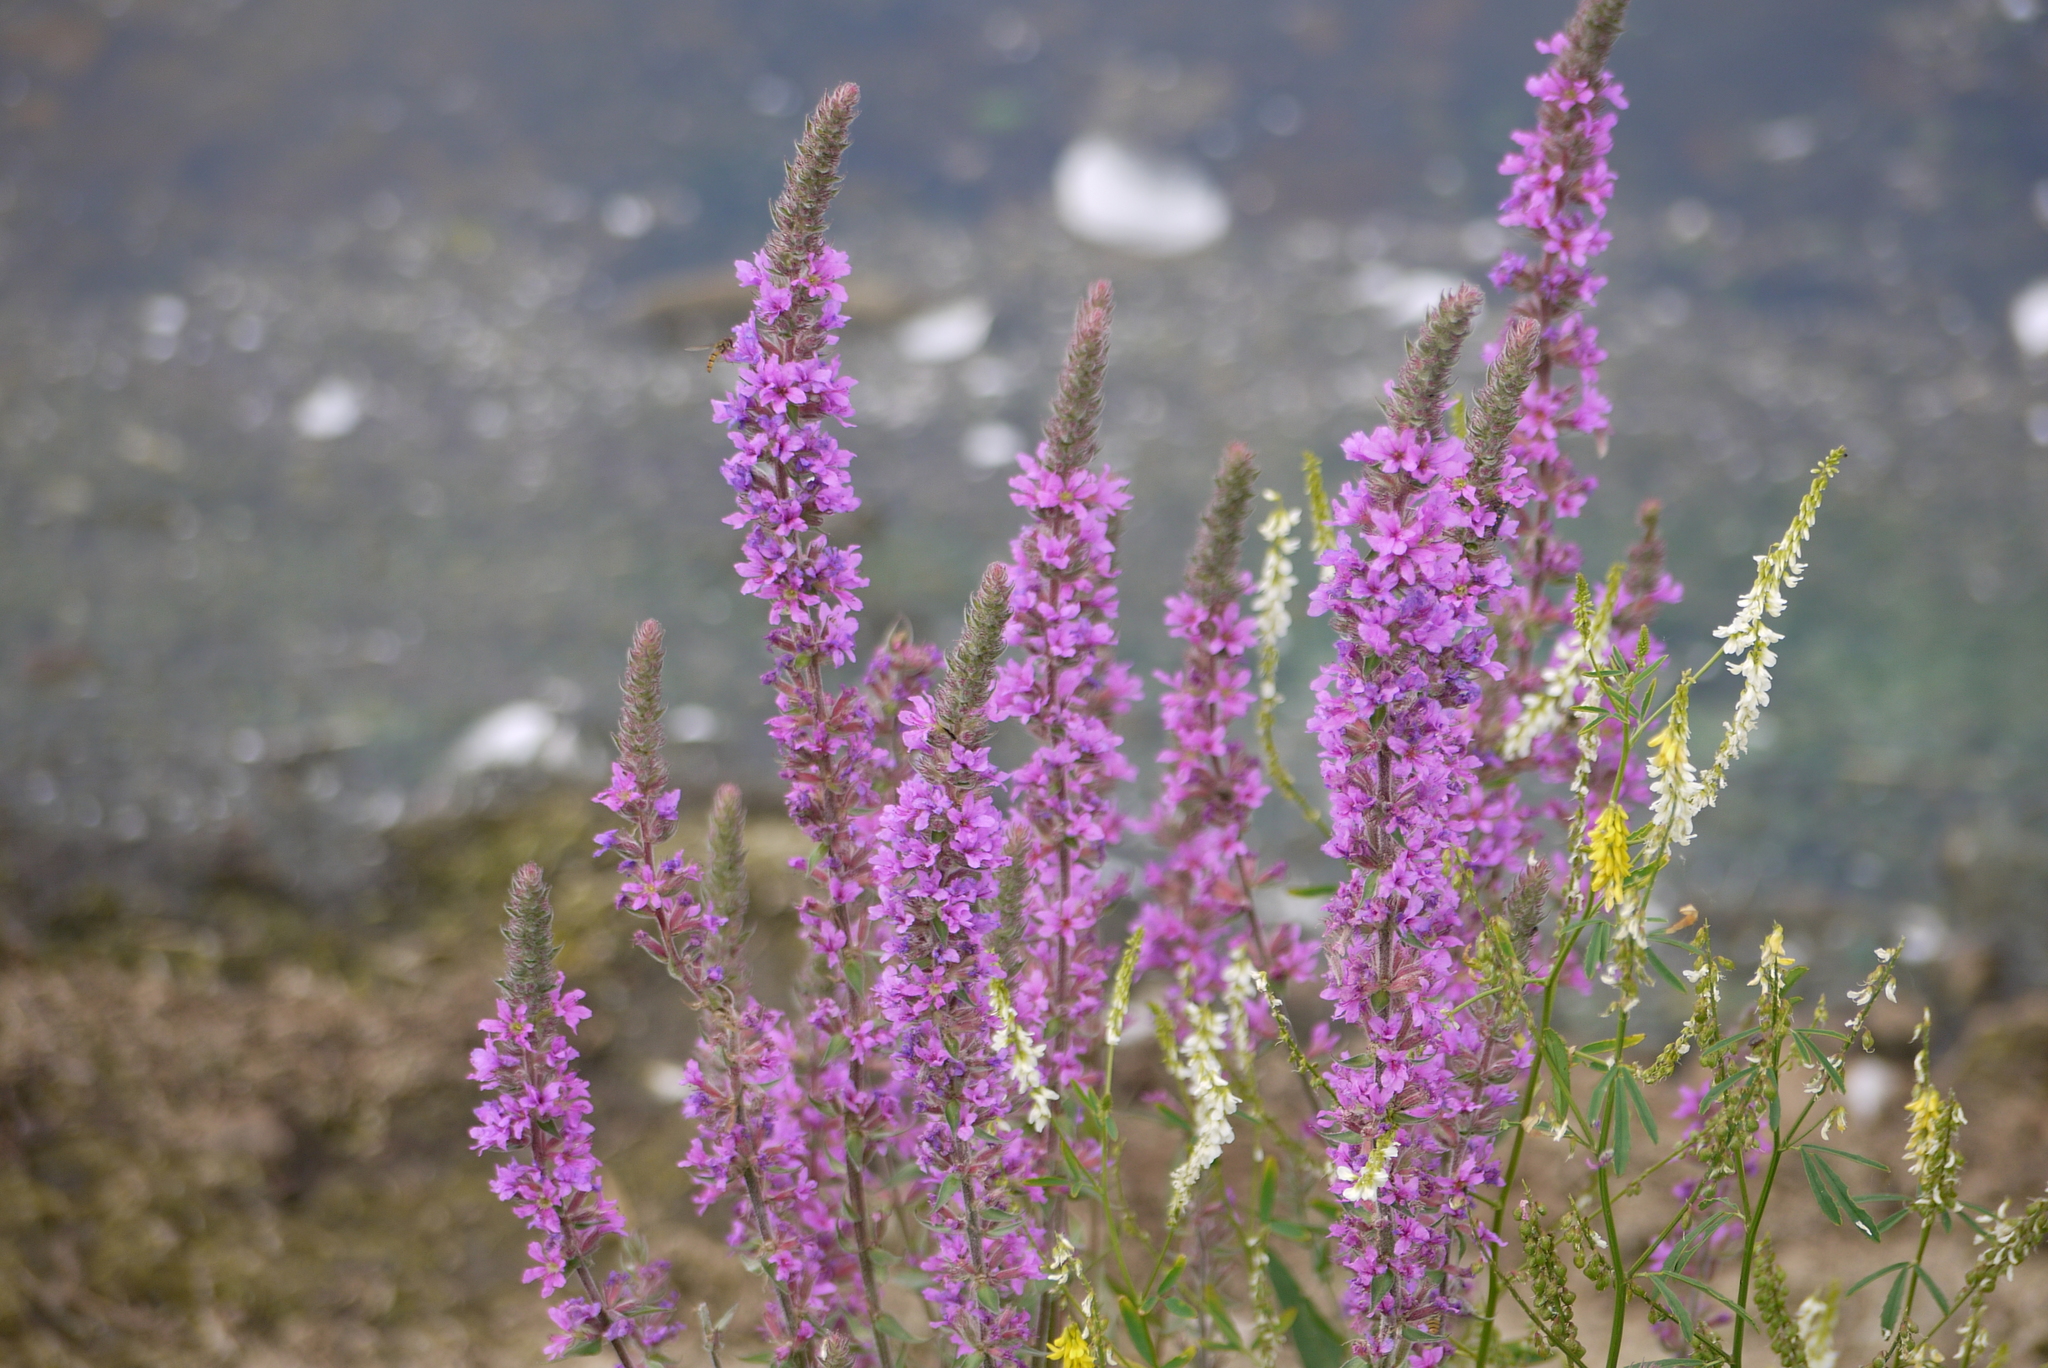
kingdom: Plantae
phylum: Tracheophyta
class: Magnoliopsida
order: Myrtales
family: Lythraceae
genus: Lythrum
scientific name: Lythrum salicaria
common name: Purple loosestrife
